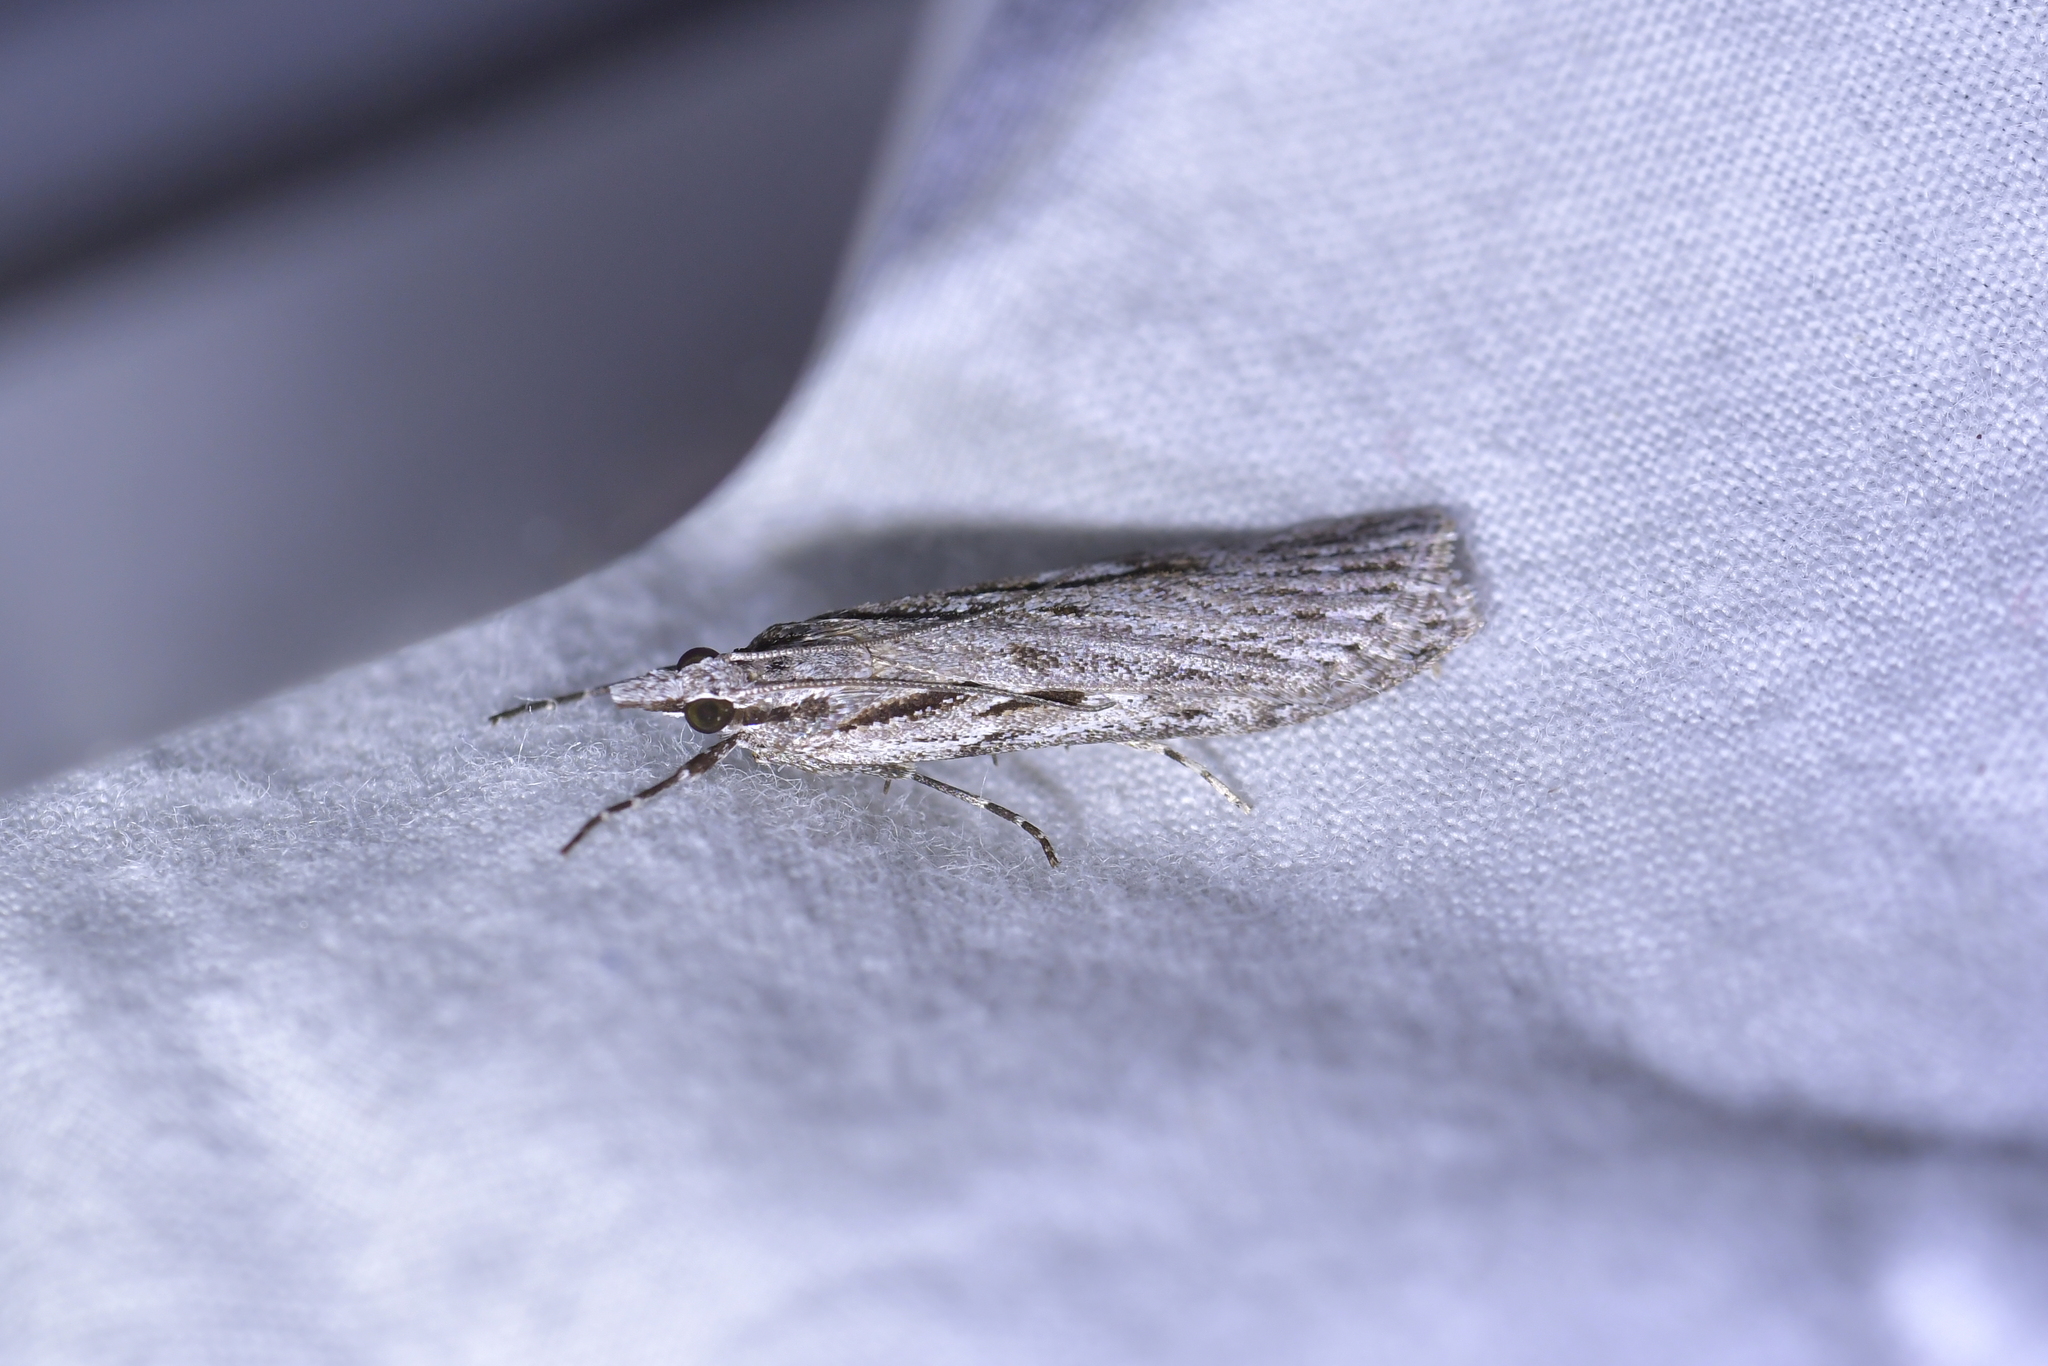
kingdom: Animalia
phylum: Arthropoda
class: Insecta
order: Lepidoptera
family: Crambidae
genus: Scoparia
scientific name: Scoparia indistinctalis
